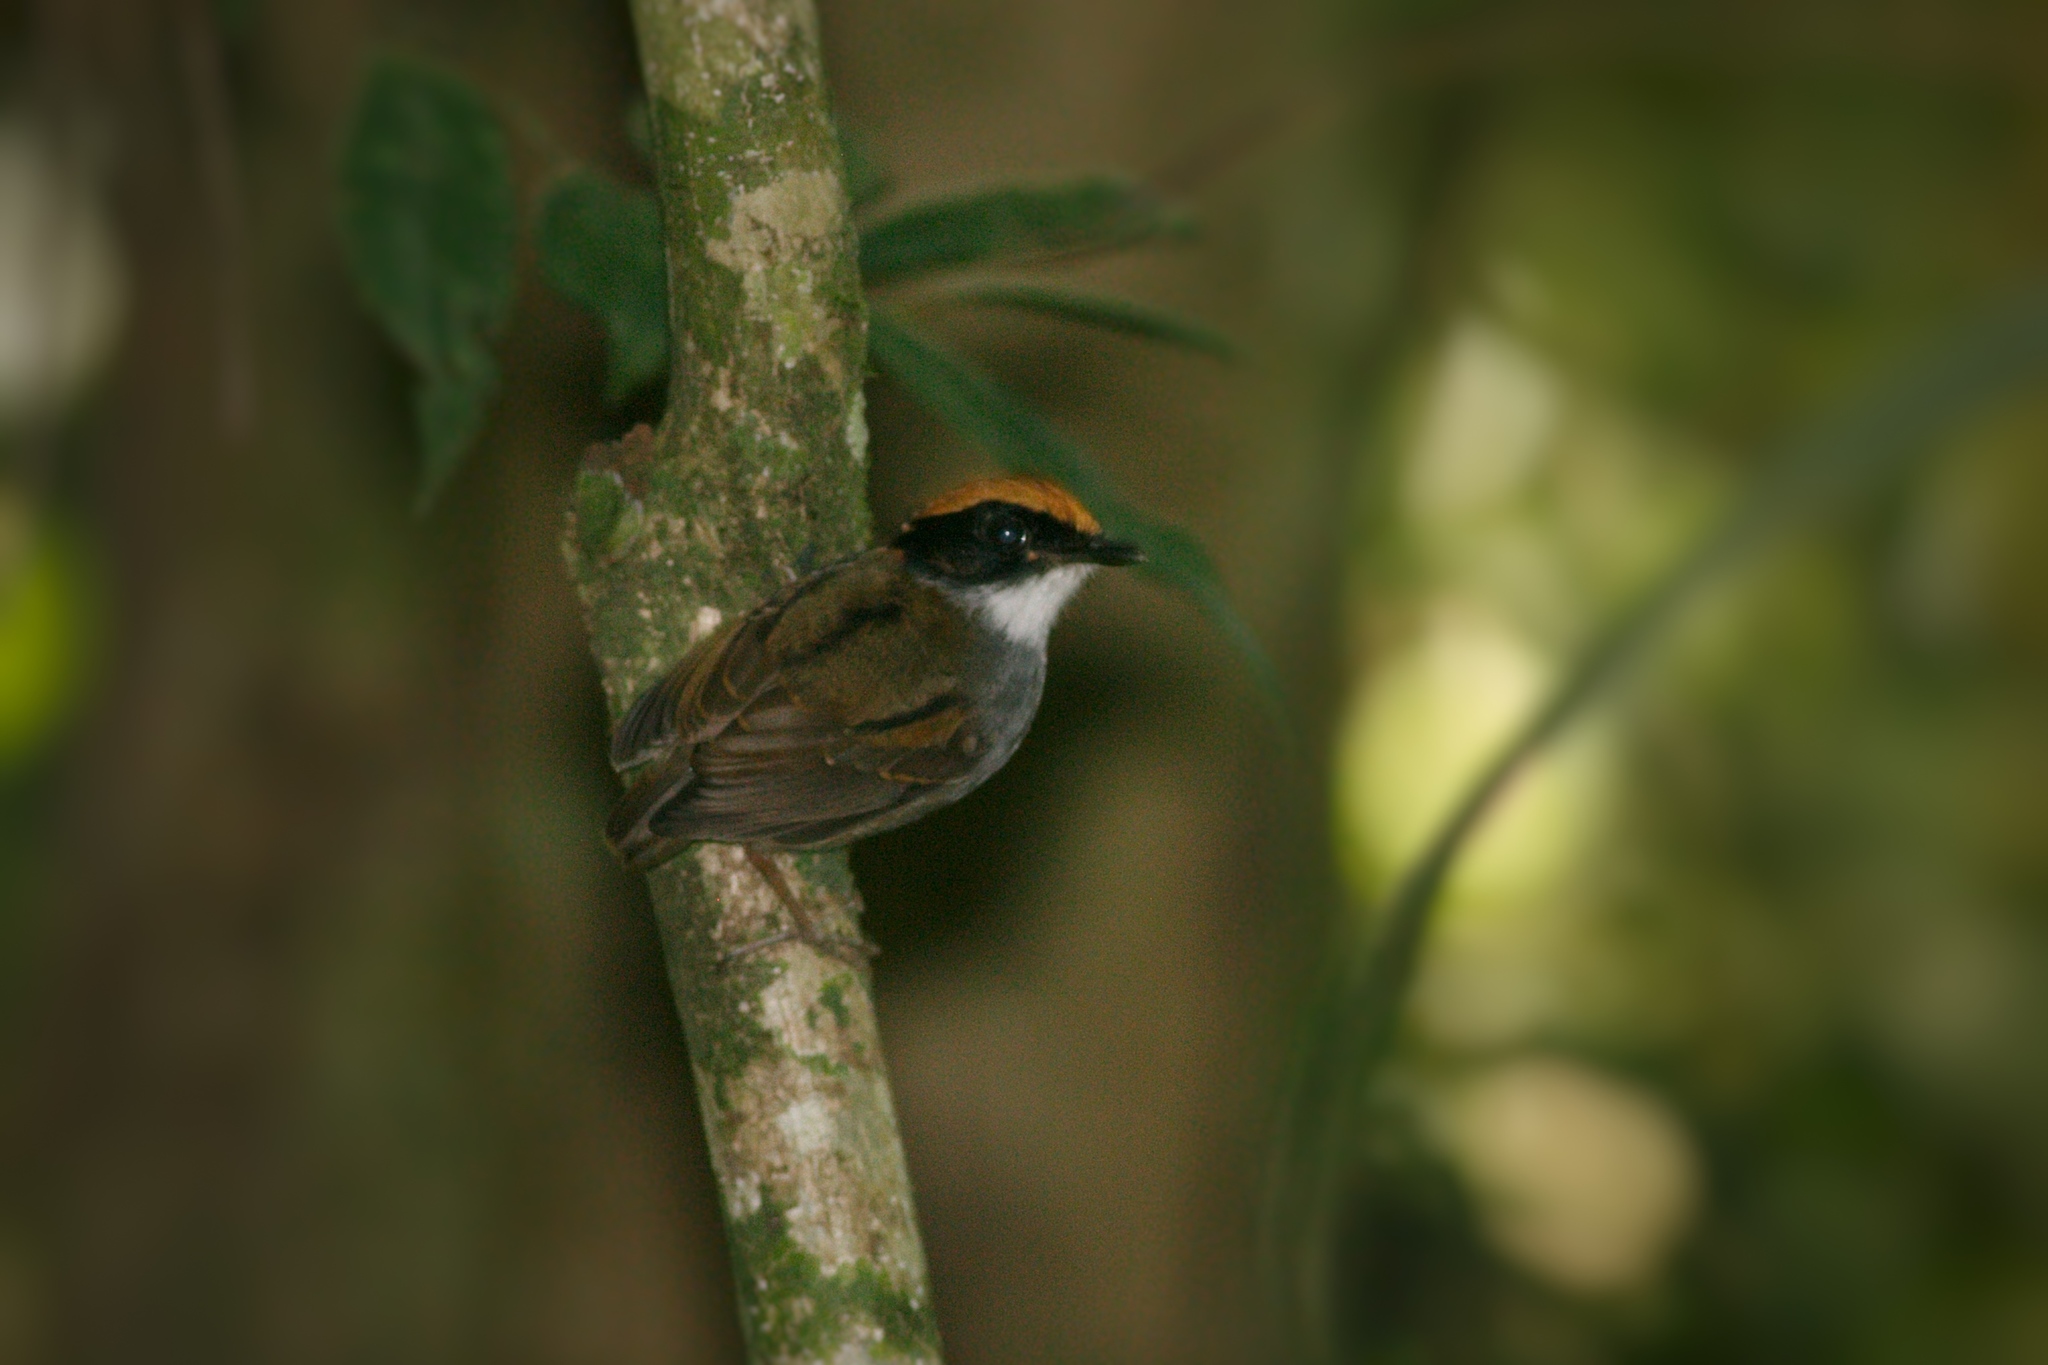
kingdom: Animalia
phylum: Chordata
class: Aves
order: Passeriformes
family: Conopophagidae
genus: Conopophaga
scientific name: Conopophaga melanops
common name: Black-cheeked gnateater
